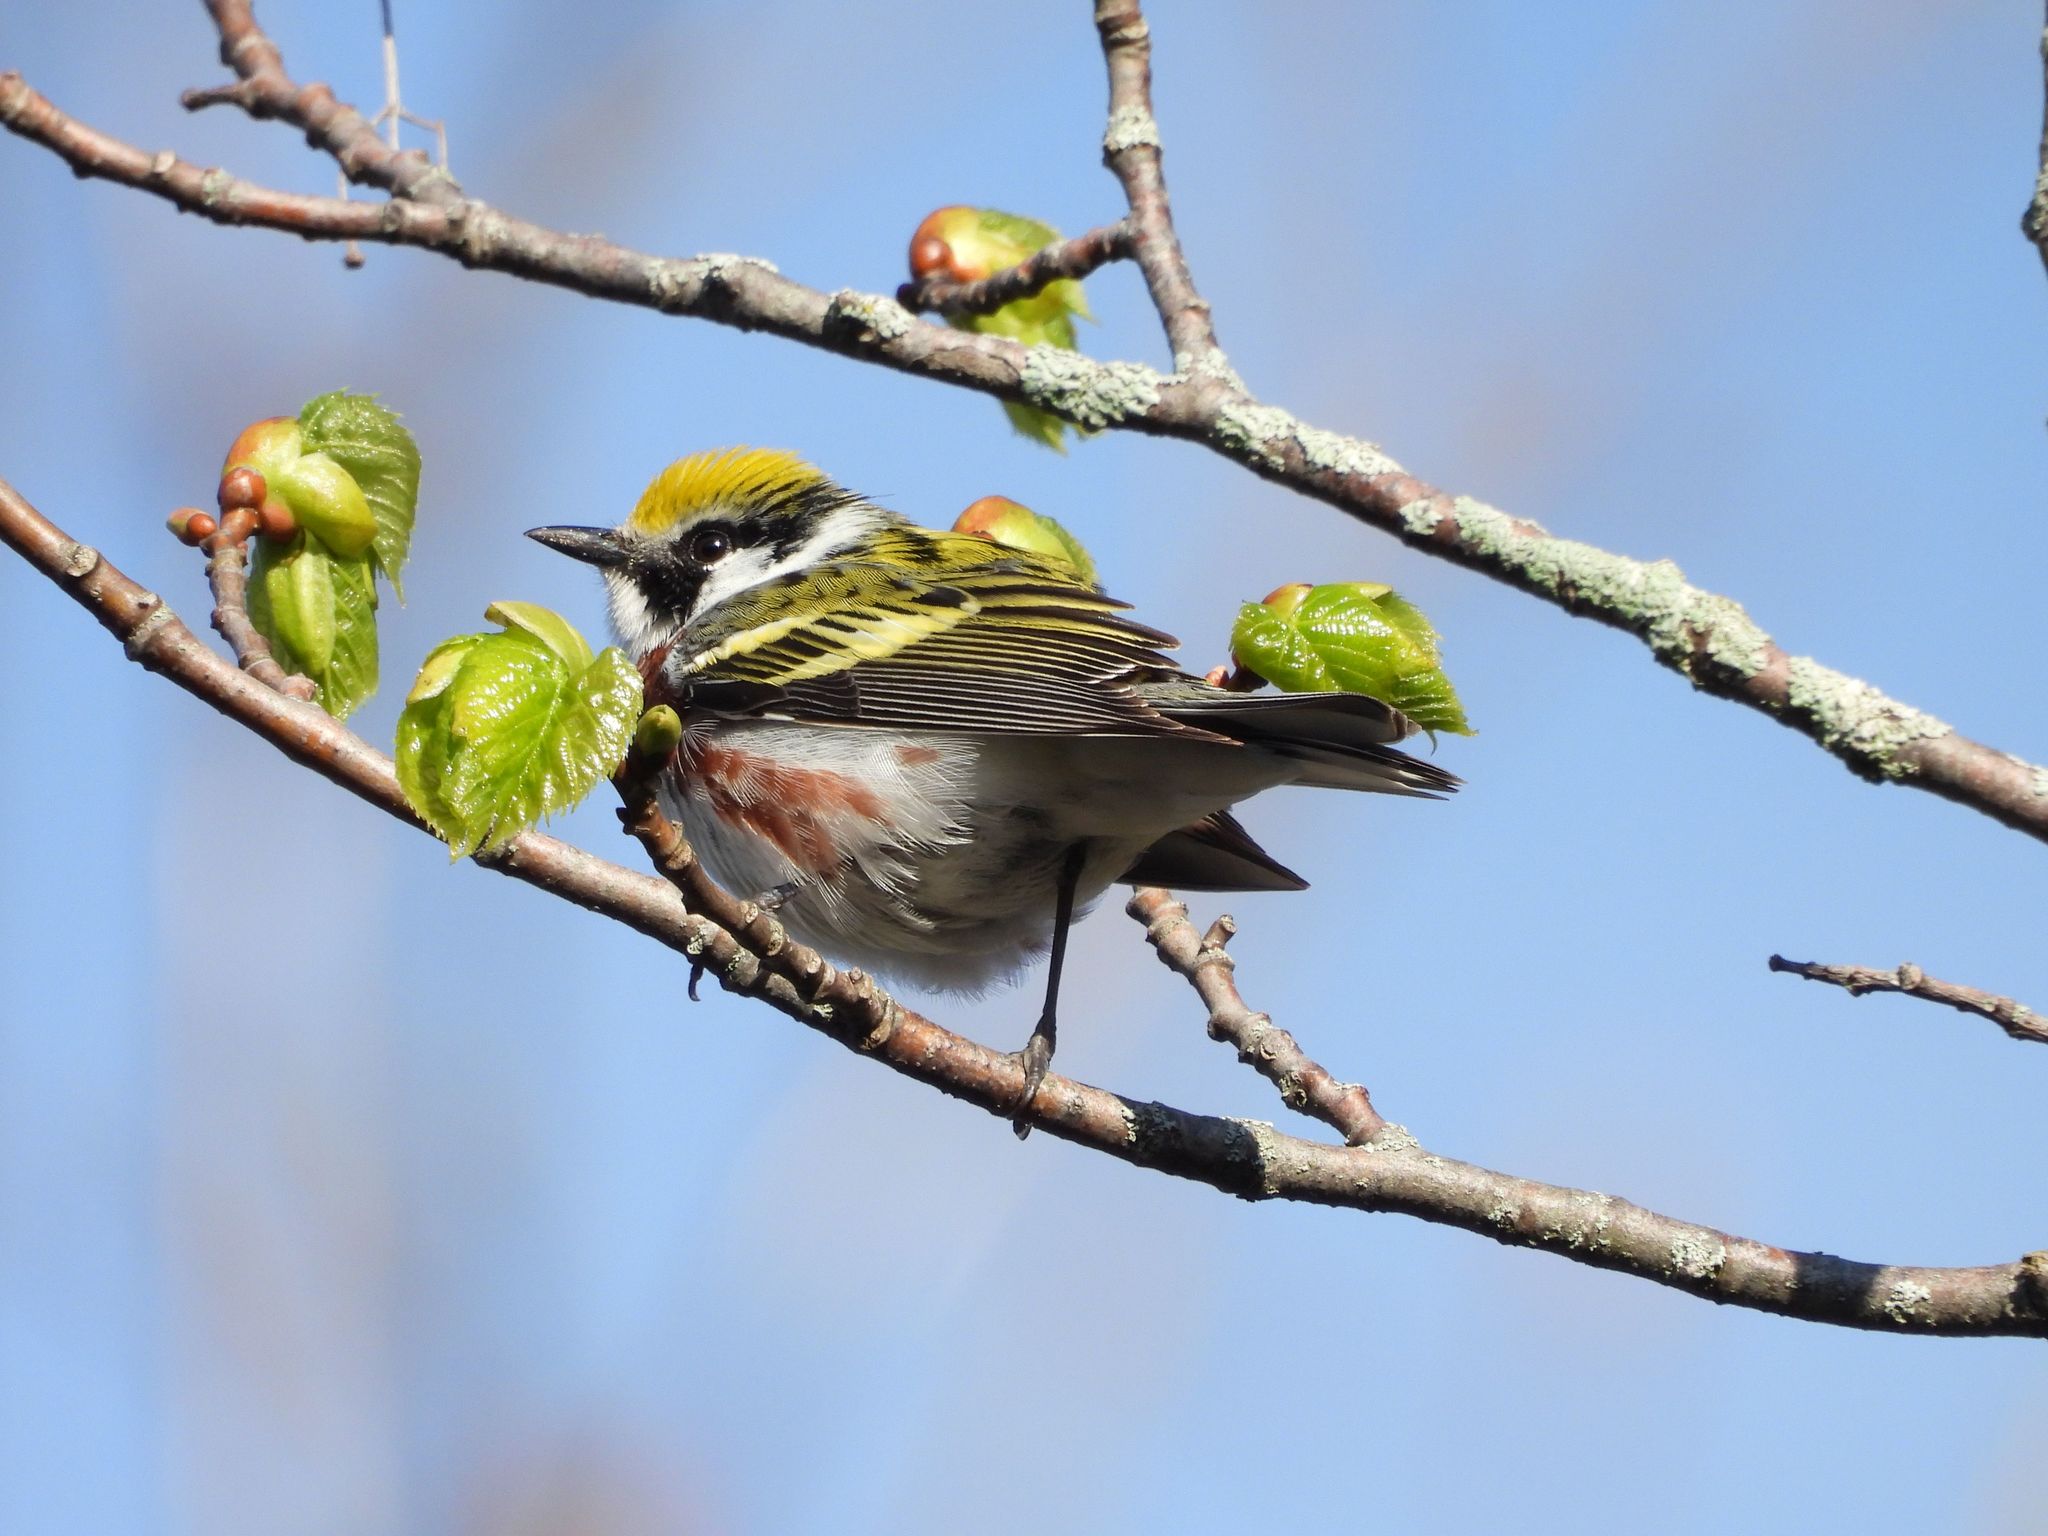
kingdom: Animalia
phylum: Chordata
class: Aves
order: Passeriformes
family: Parulidae
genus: Setophaga
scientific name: Setophaga pensylvanica
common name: Chestnut-sided warbler
